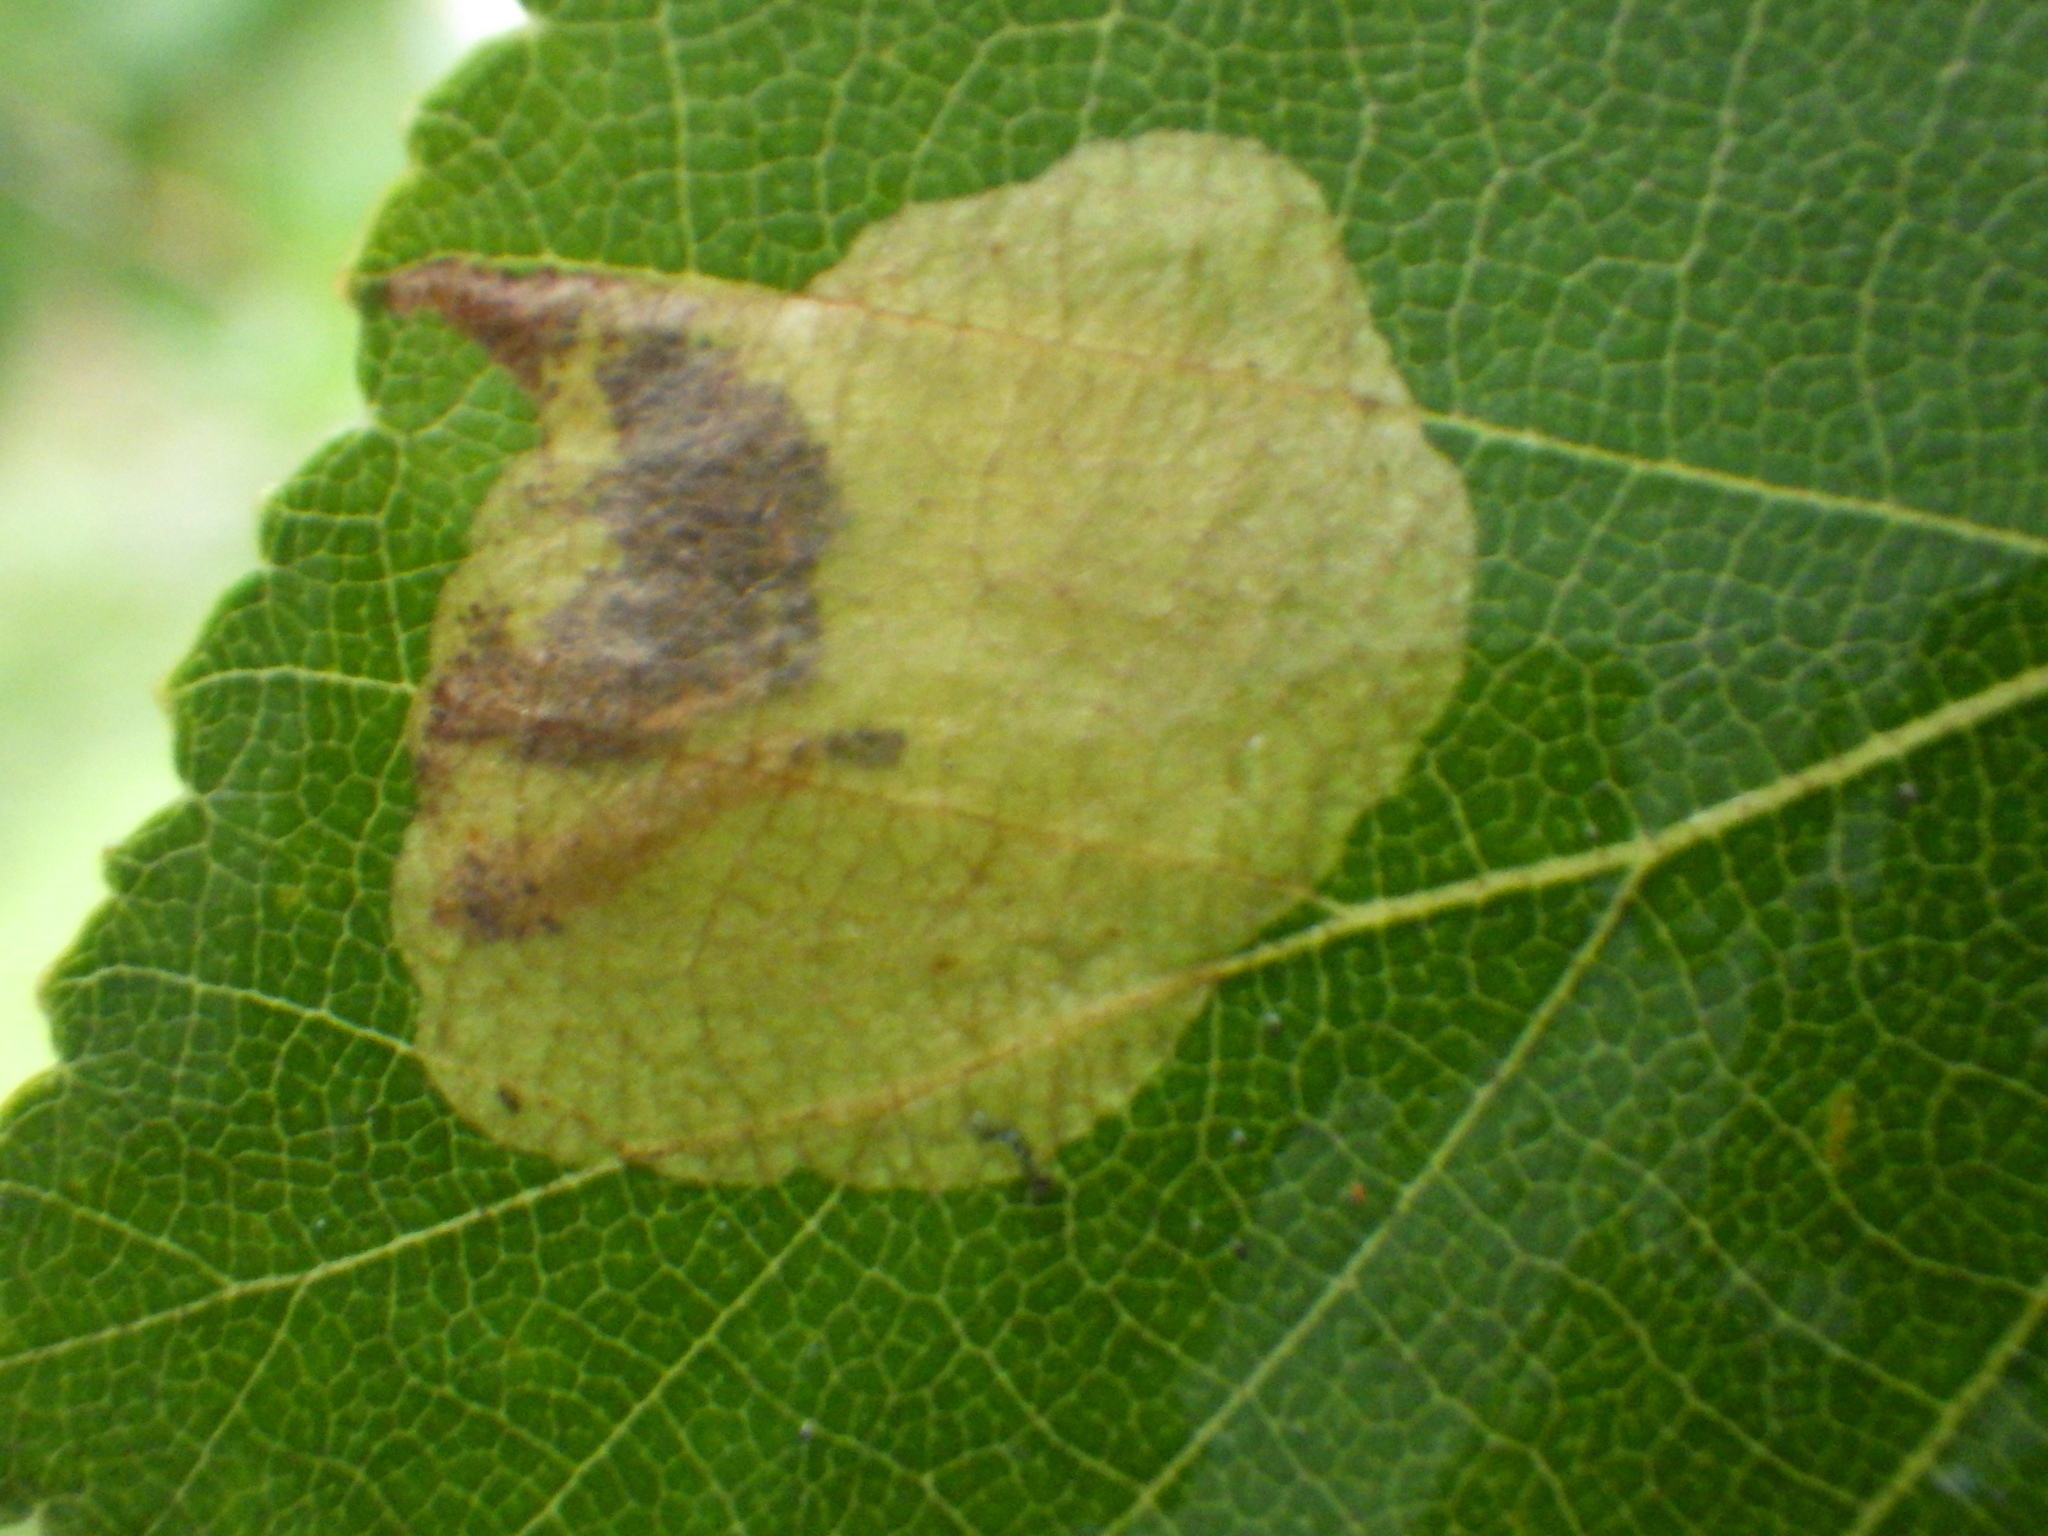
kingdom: Animalia
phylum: Arthropoda
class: Insecta
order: Hymenoptera
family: Tenthredinidae
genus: Fenusella
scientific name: Fenusella nana
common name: Early birch leaf edgeminer
